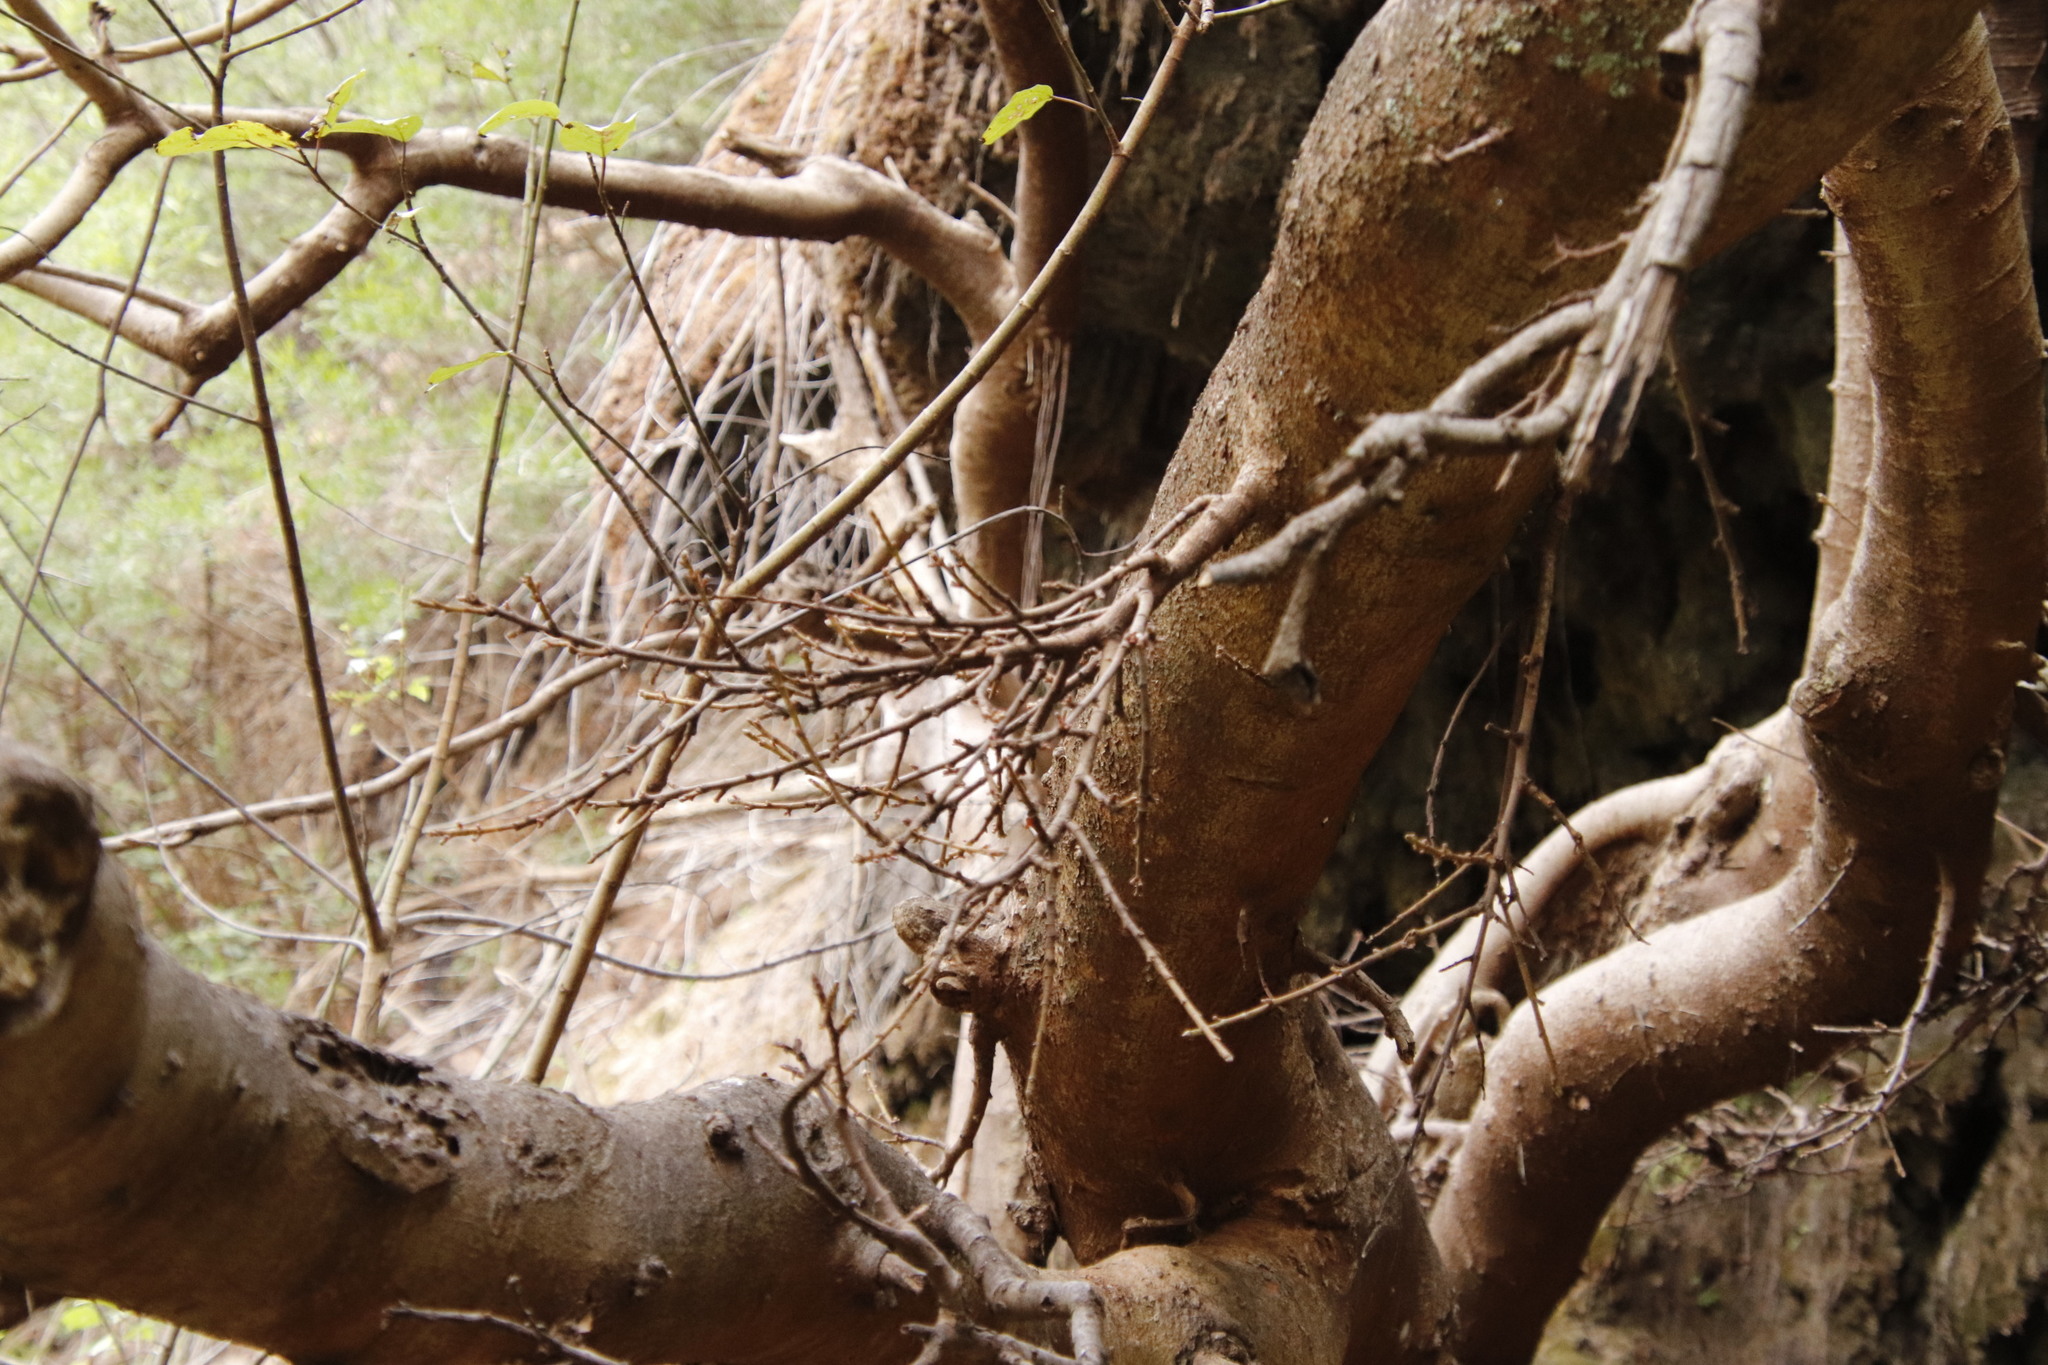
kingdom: Plantae
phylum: Tracheophyta
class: Magnoliopsida
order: Rosales
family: Moraceae
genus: Ficus
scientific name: Ficus sur
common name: Cape fig
